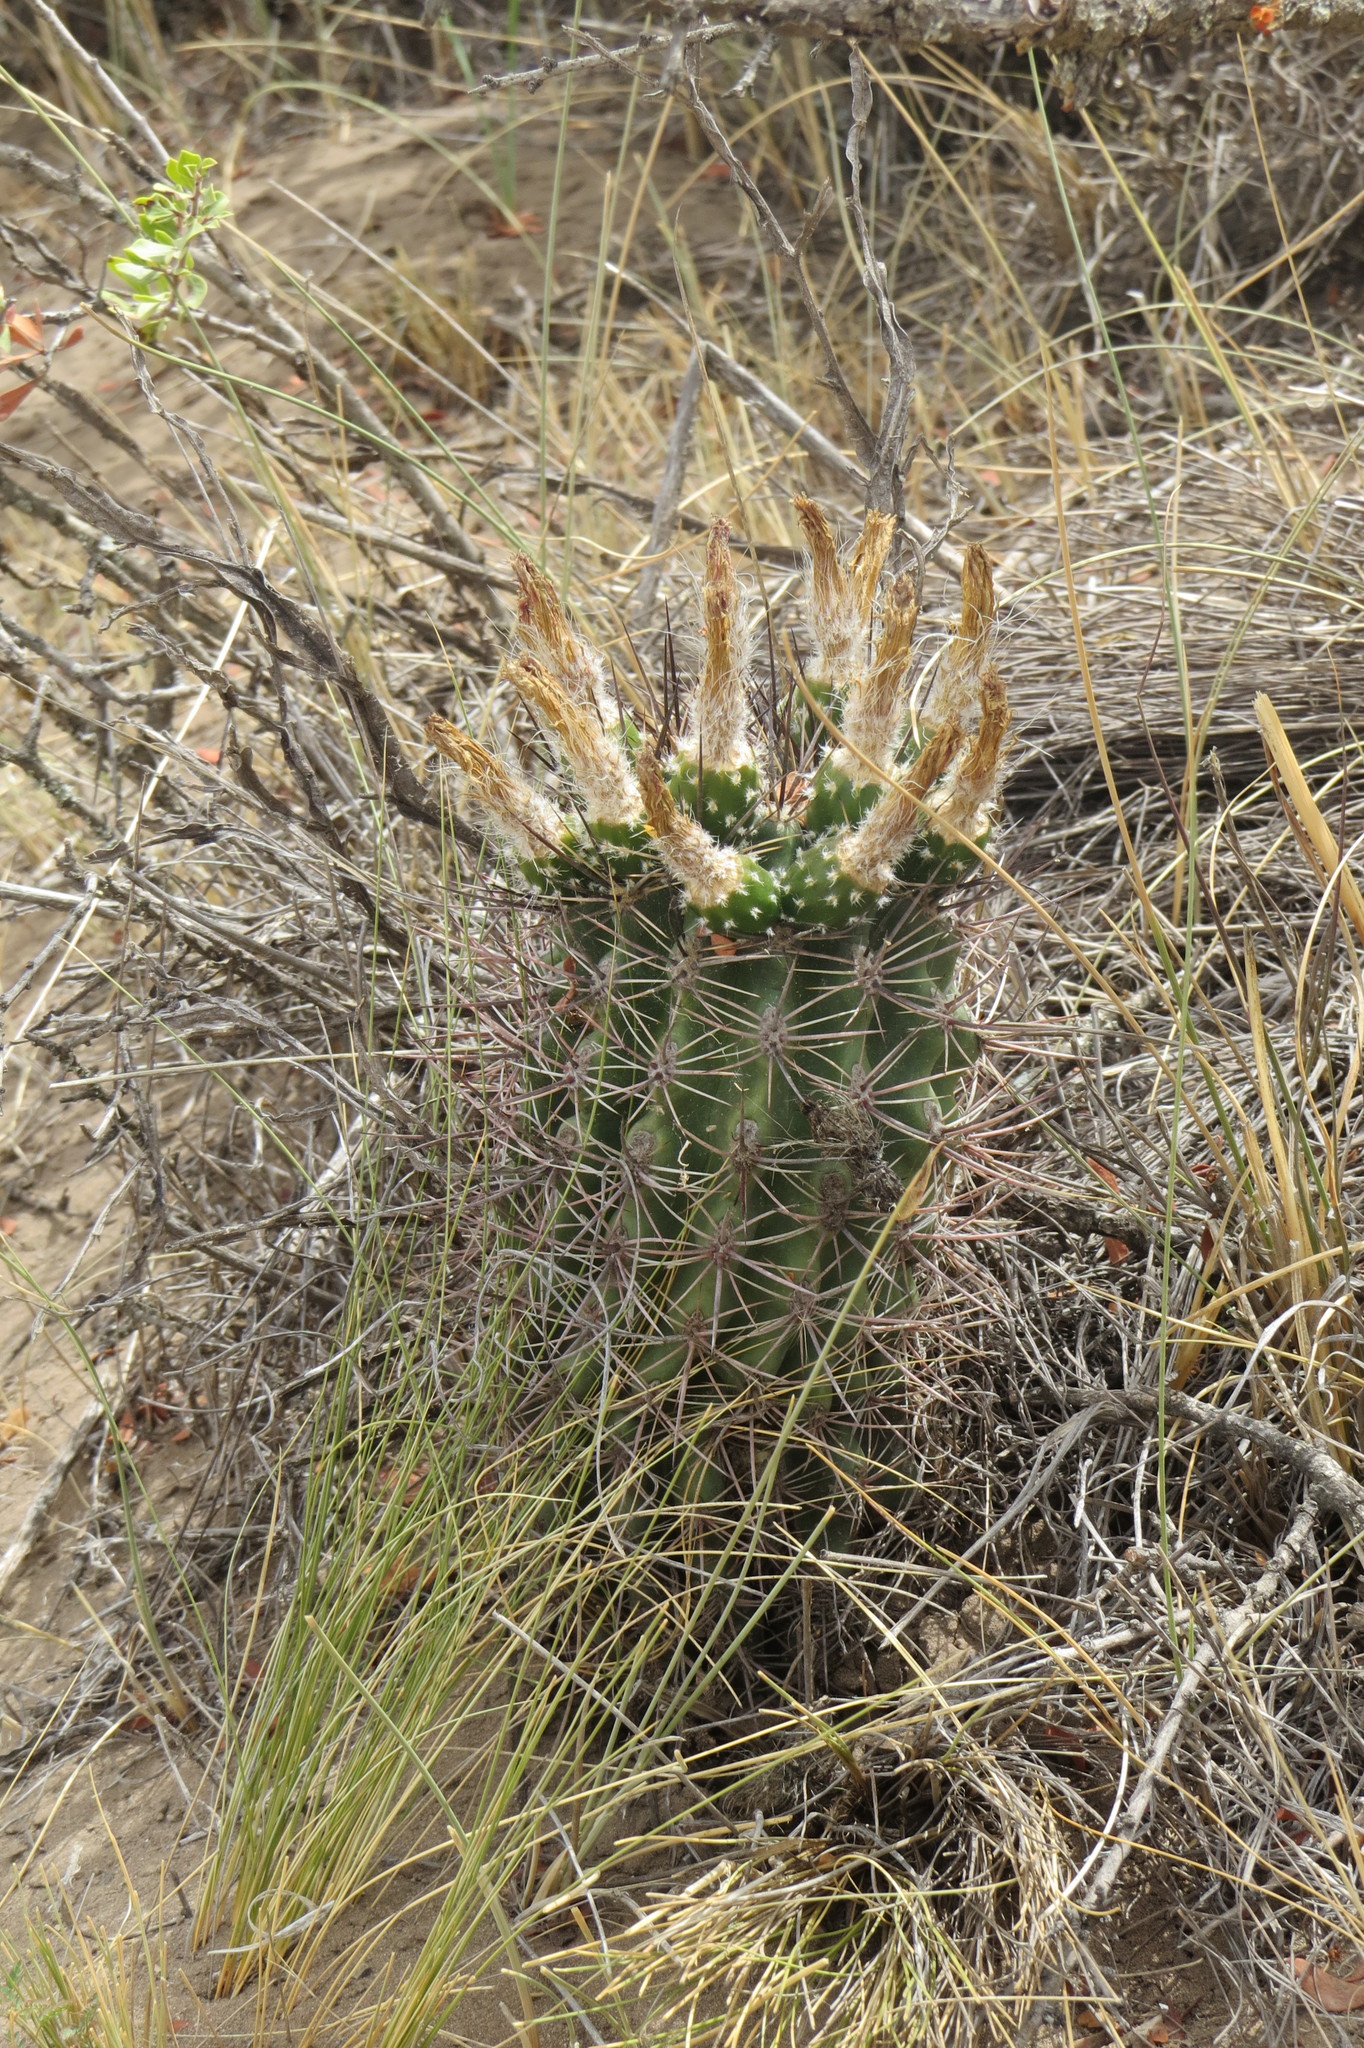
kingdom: Plantae
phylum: Tracheophyta
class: Magnoliopsida
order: Caryophyllales
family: Cactaceae
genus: Eriosyce
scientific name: Eriosyce strausiana
